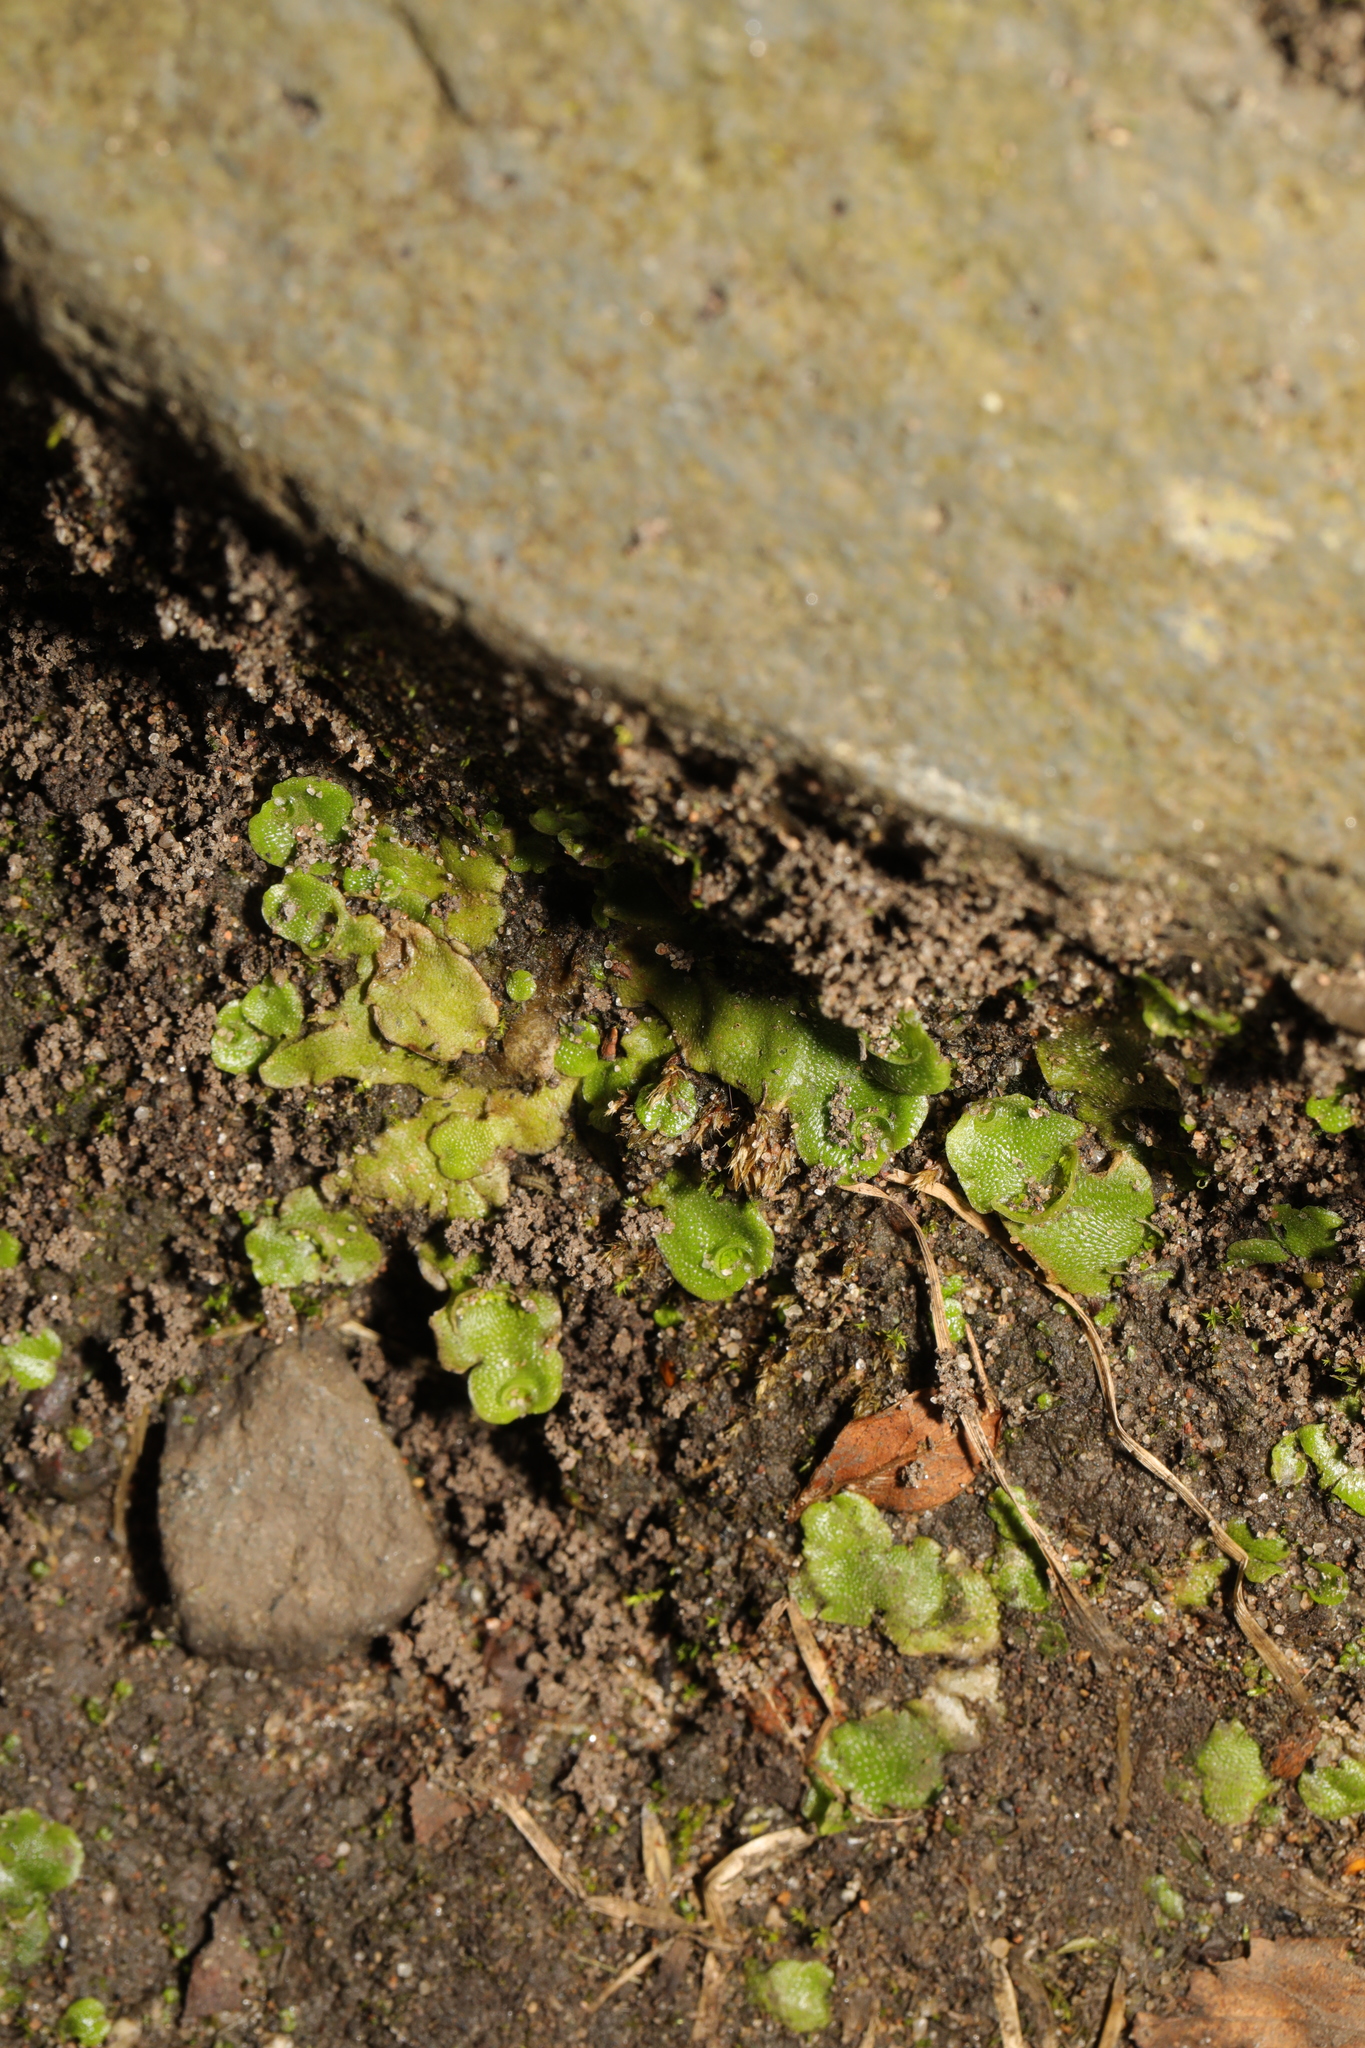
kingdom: Plantae
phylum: Marchantiophyta
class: Marchantiopsida
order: Lunulariales
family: Lunulariaceae
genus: Lunularia
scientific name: Lunularia cruciata
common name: Crescent-cup liverwort
